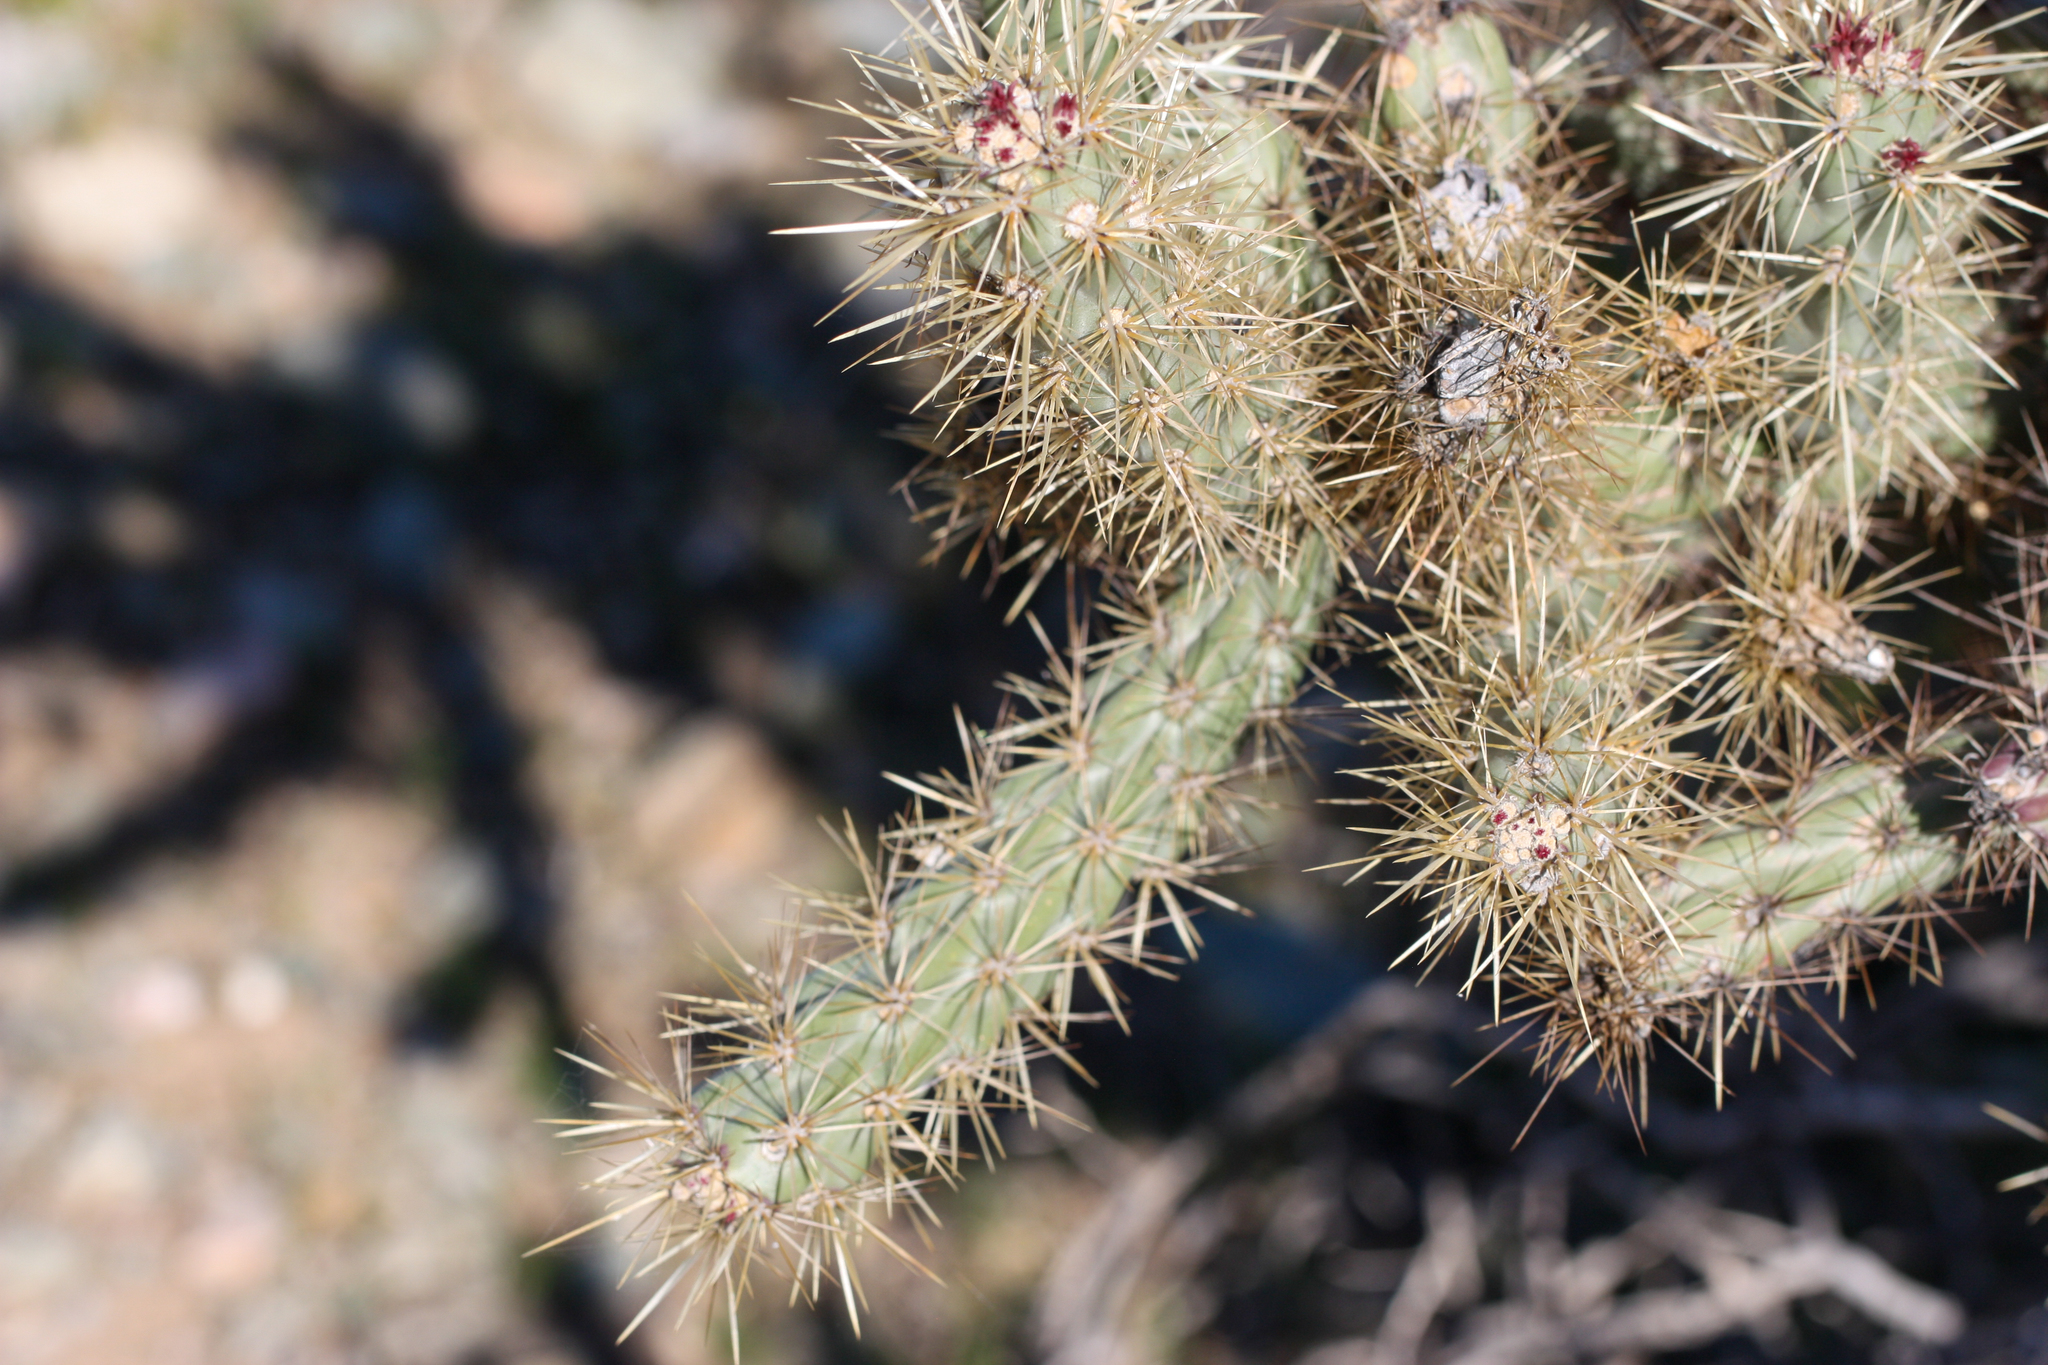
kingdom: Plantae
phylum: Tracheophyta
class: Magnoliopsida
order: Caryophyllales
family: Cactaceae
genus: Cylindropuntia
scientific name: Cylindropuntia acanthocarpa
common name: Buckhorn cholla
